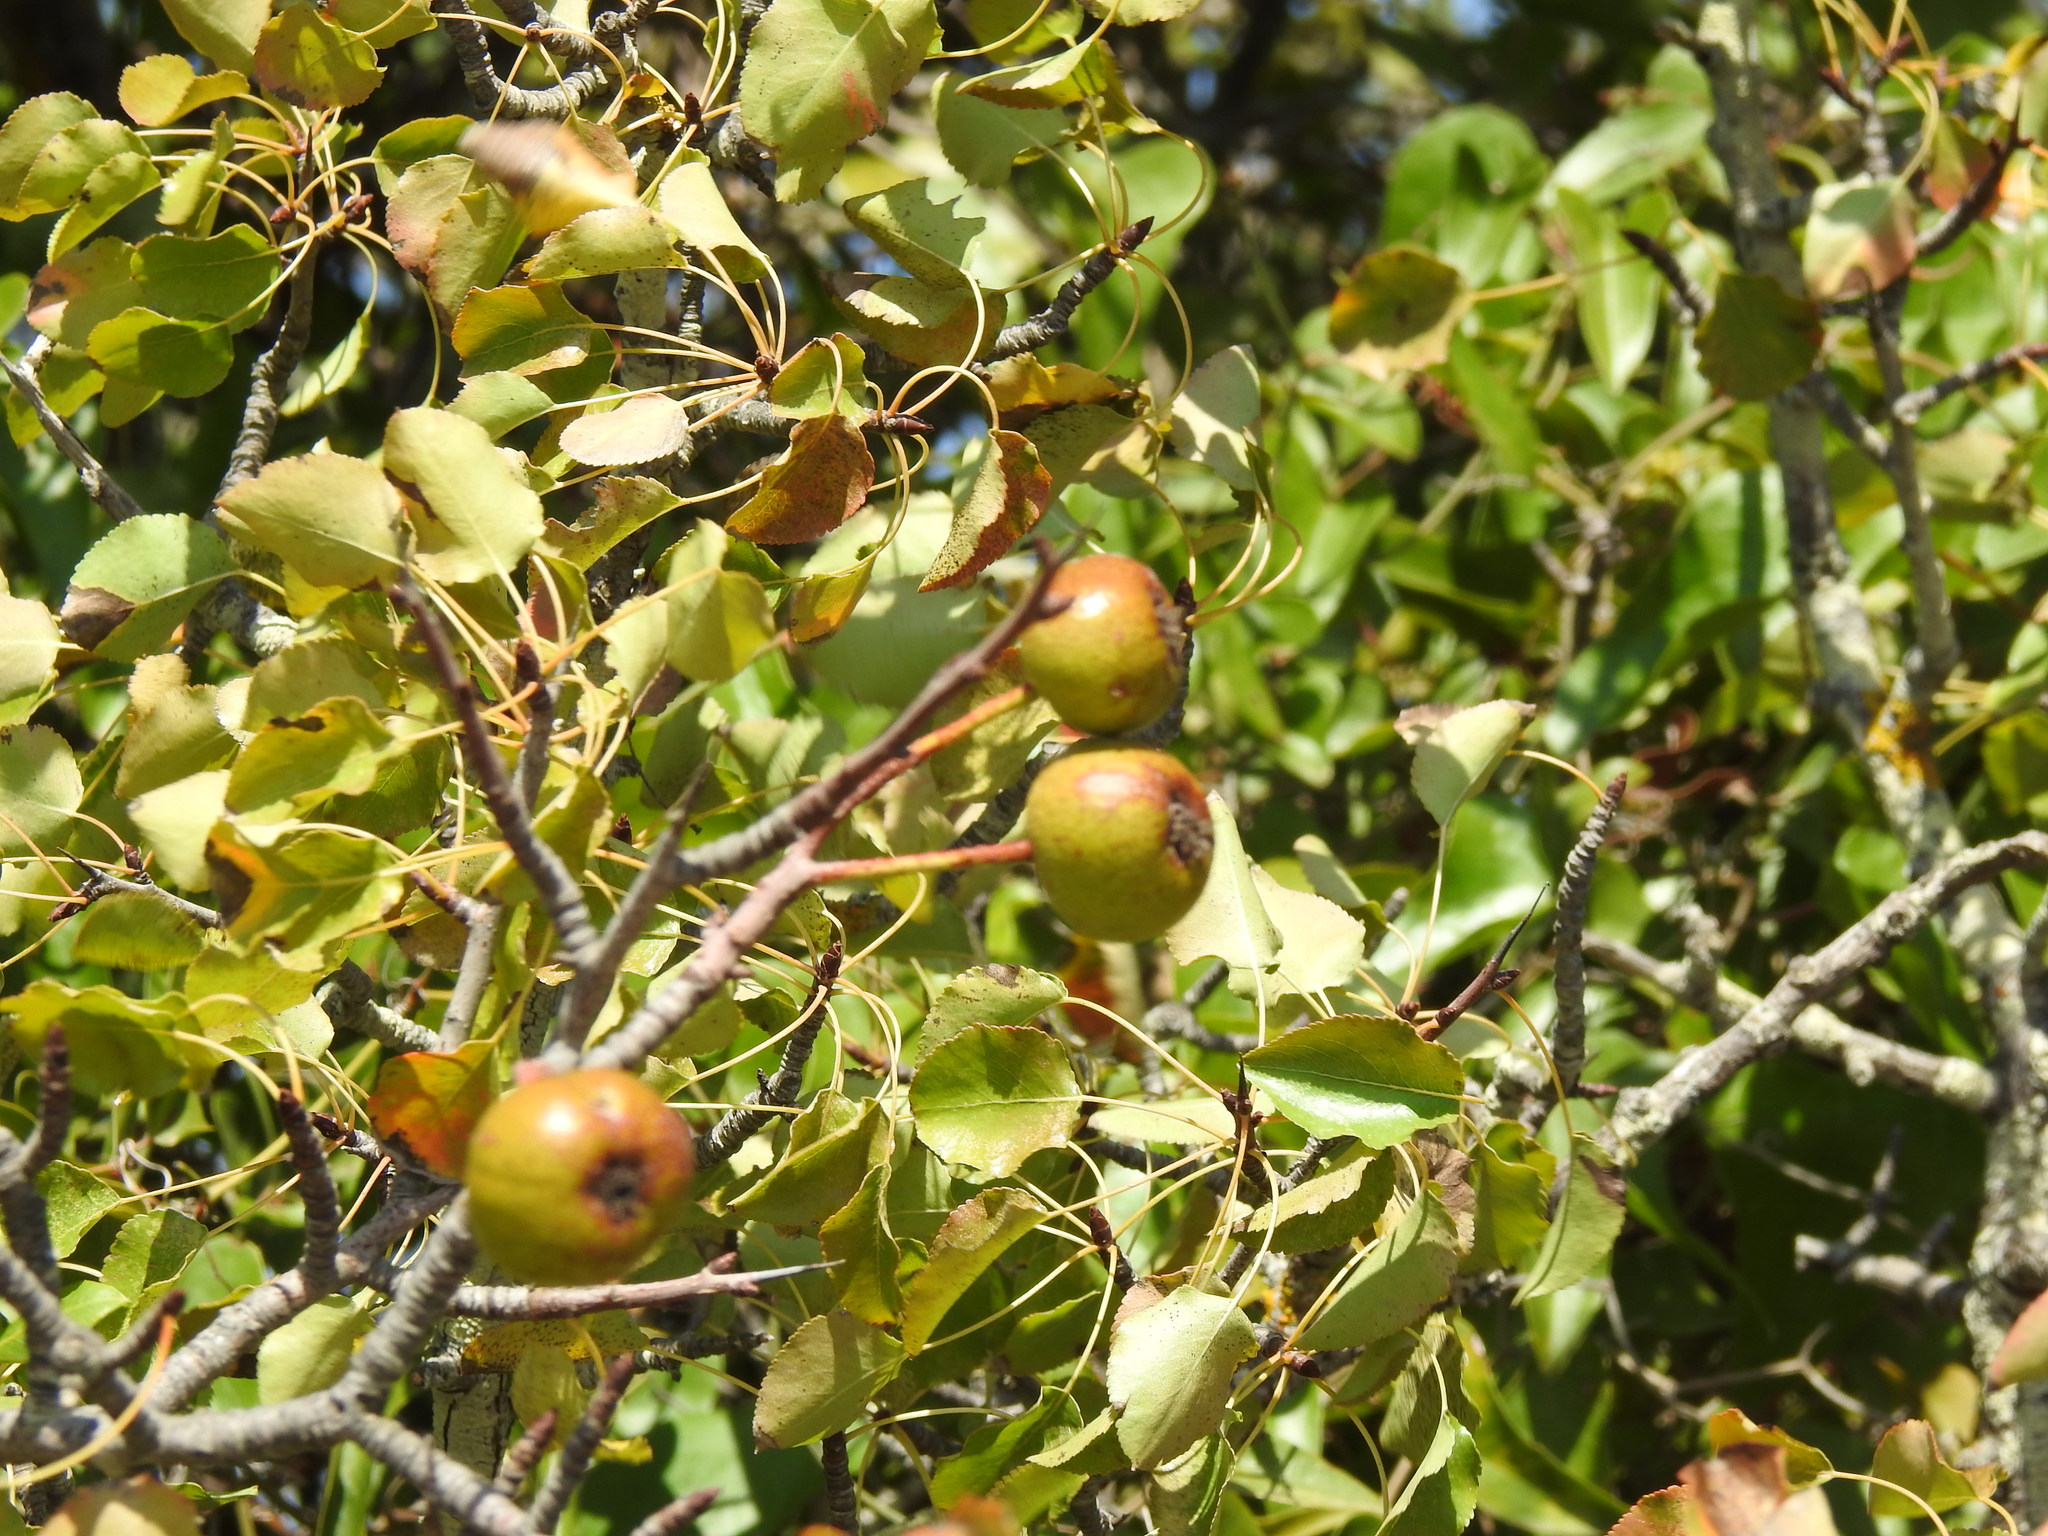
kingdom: Plantae
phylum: Tracheophyta
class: Magnoliopsida
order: Rosales
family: Rosaceae
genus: Pyrus
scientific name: Pyrus bourgaeana
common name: Iberian pear
